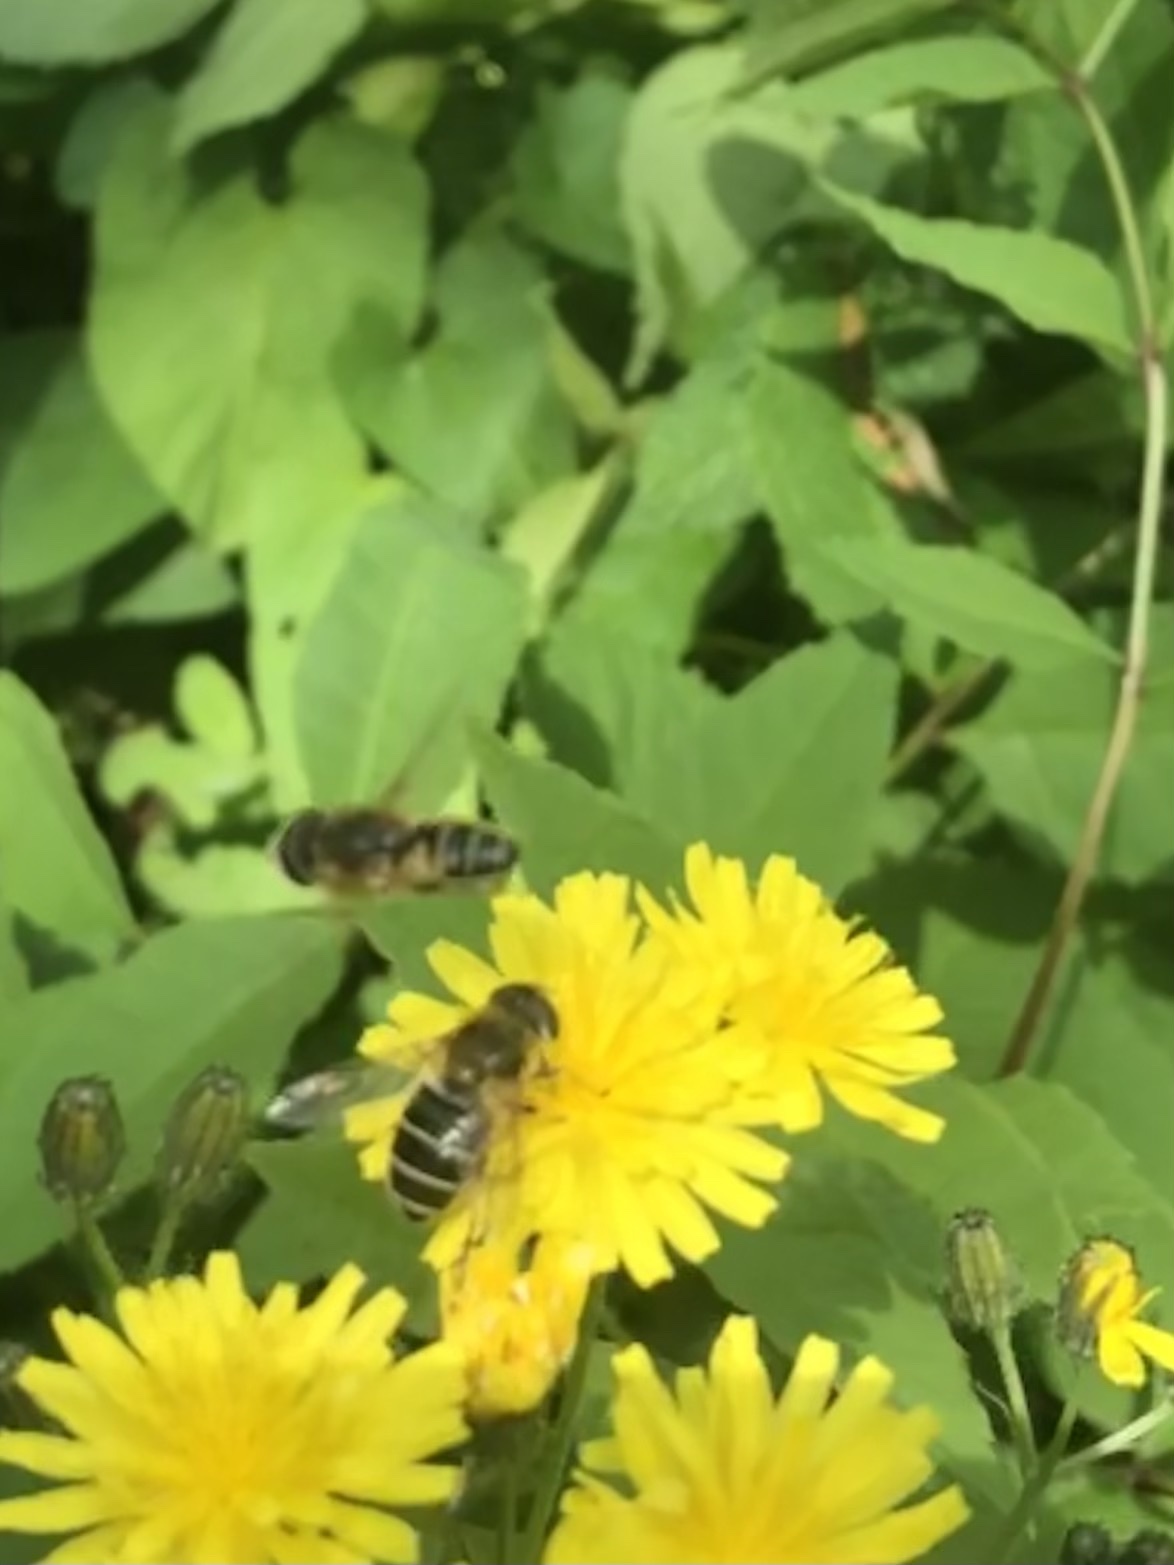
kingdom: Animalia
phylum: Arthropoda
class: Insecta
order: Diptera
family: Syrphidae
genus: Eristalis
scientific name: Eristalis nemorum
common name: Orange-spined drone fly
